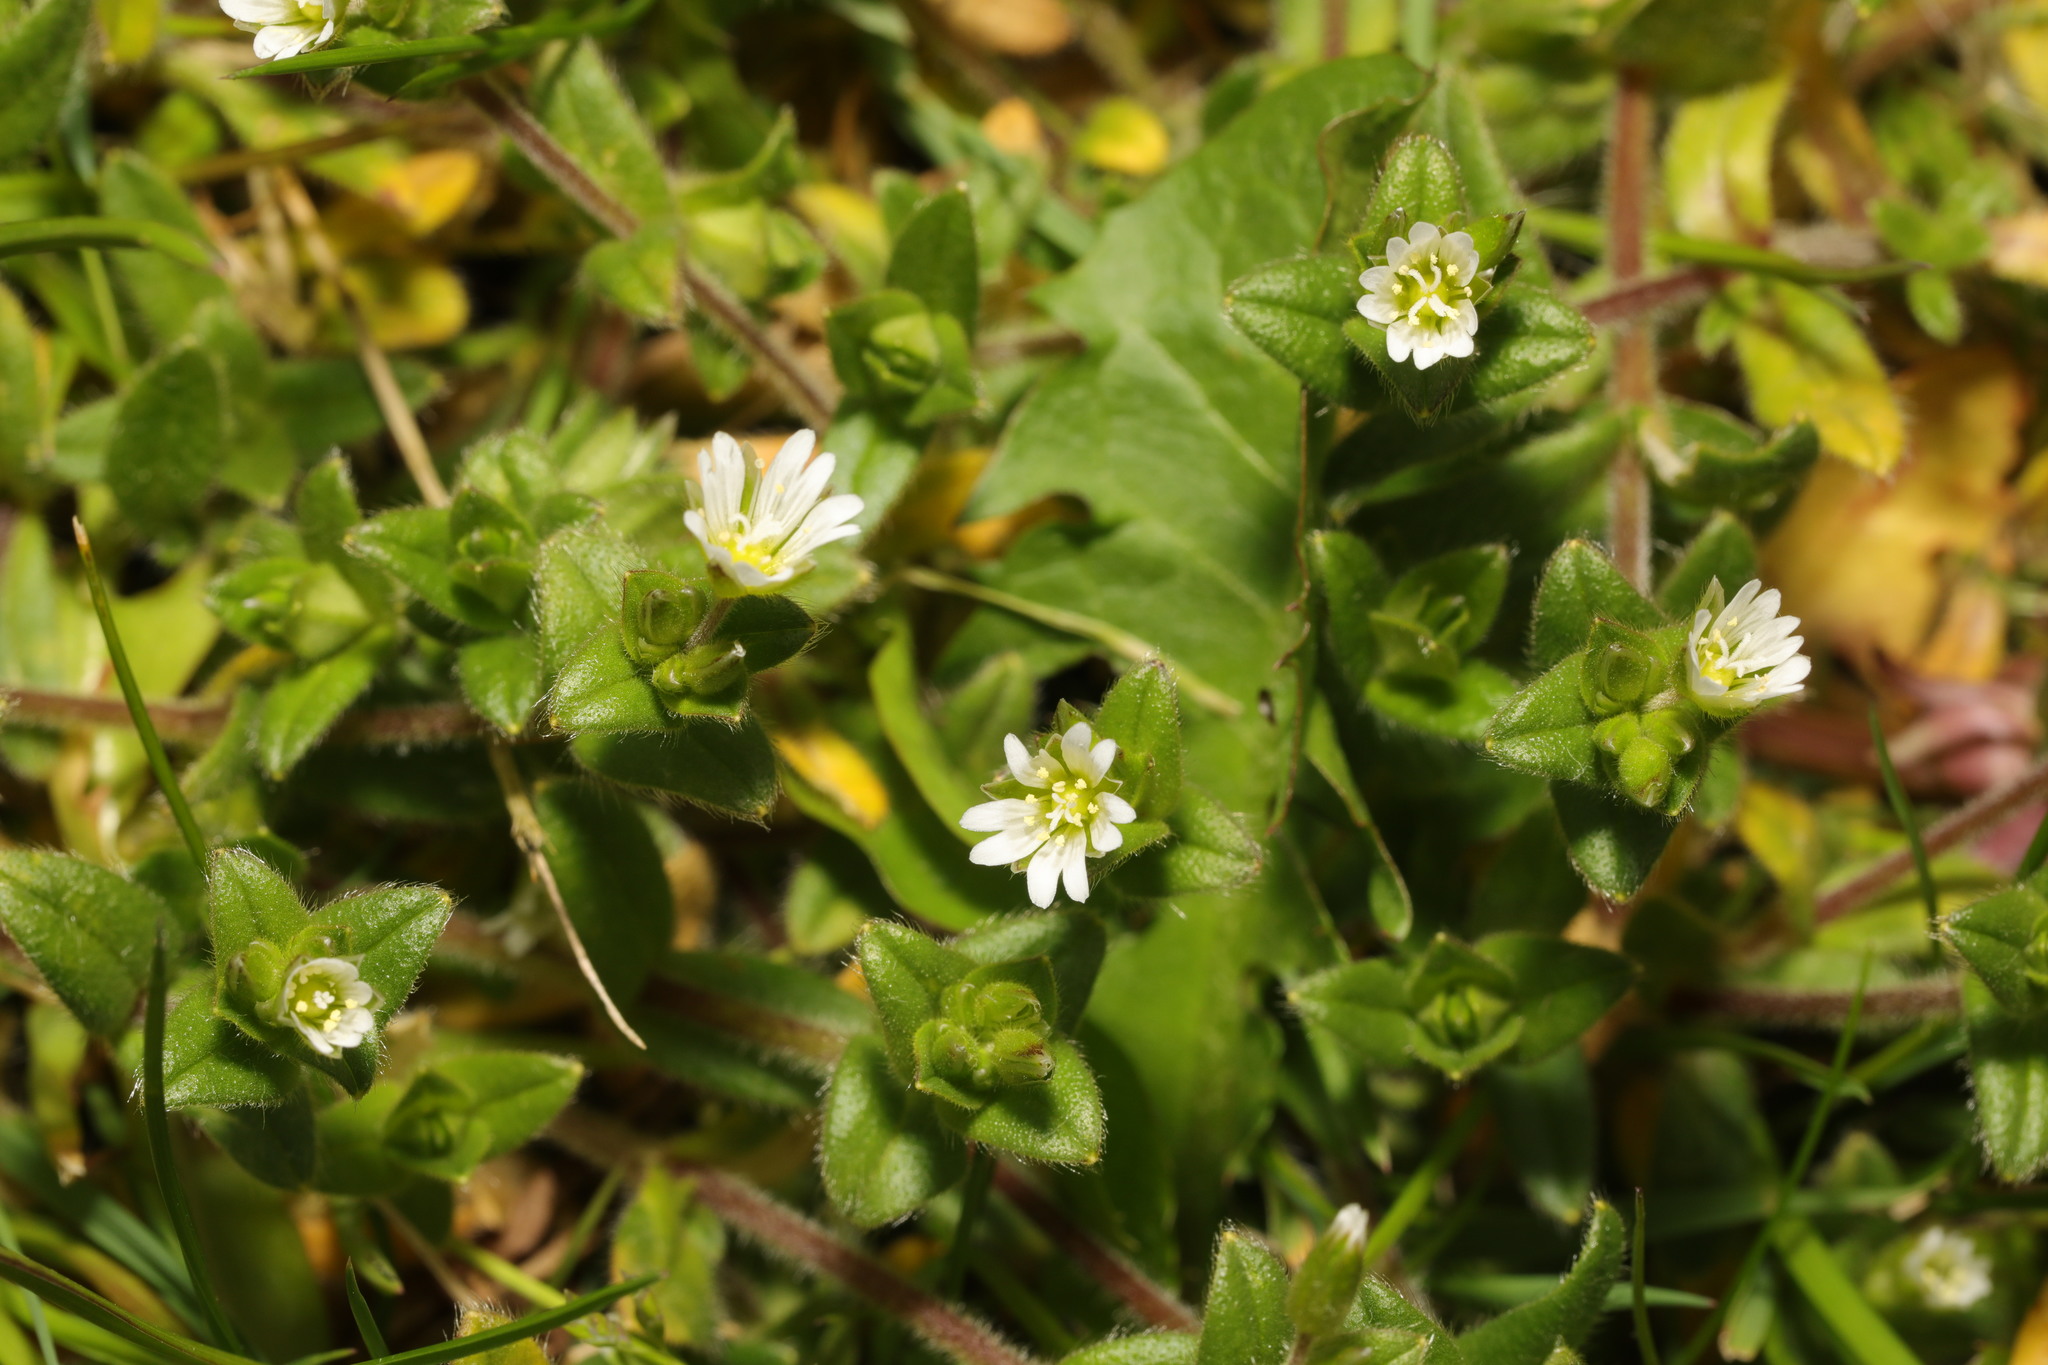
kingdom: Plantae
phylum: Tracheophyta
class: Magnoliopsida
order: Caryophyllales
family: Caryophyllaceae
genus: Cerastium
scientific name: Cerastium fontanum
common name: Common mouse-ear
